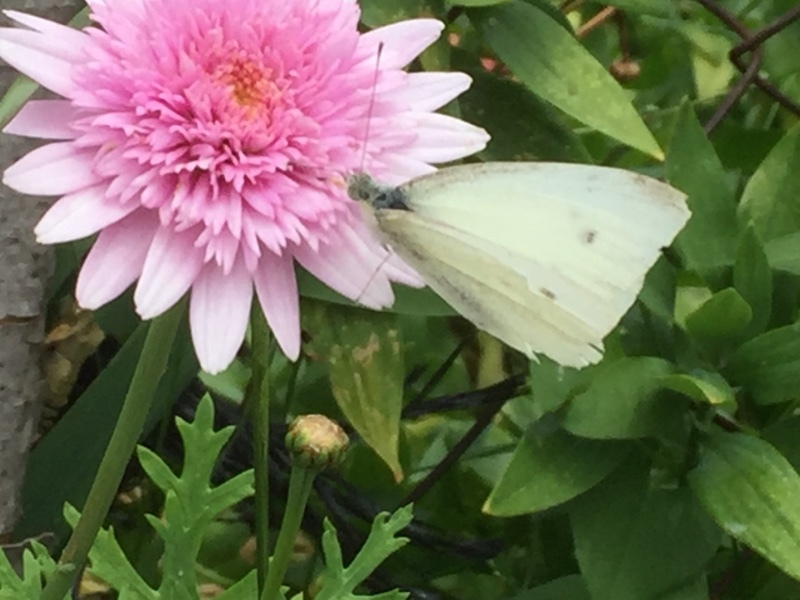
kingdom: Animalia
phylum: Arthropoda
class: Insecta
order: Lepidoptera
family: Pieridae
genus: Pieris
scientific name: Pieris rapae
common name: Small white
